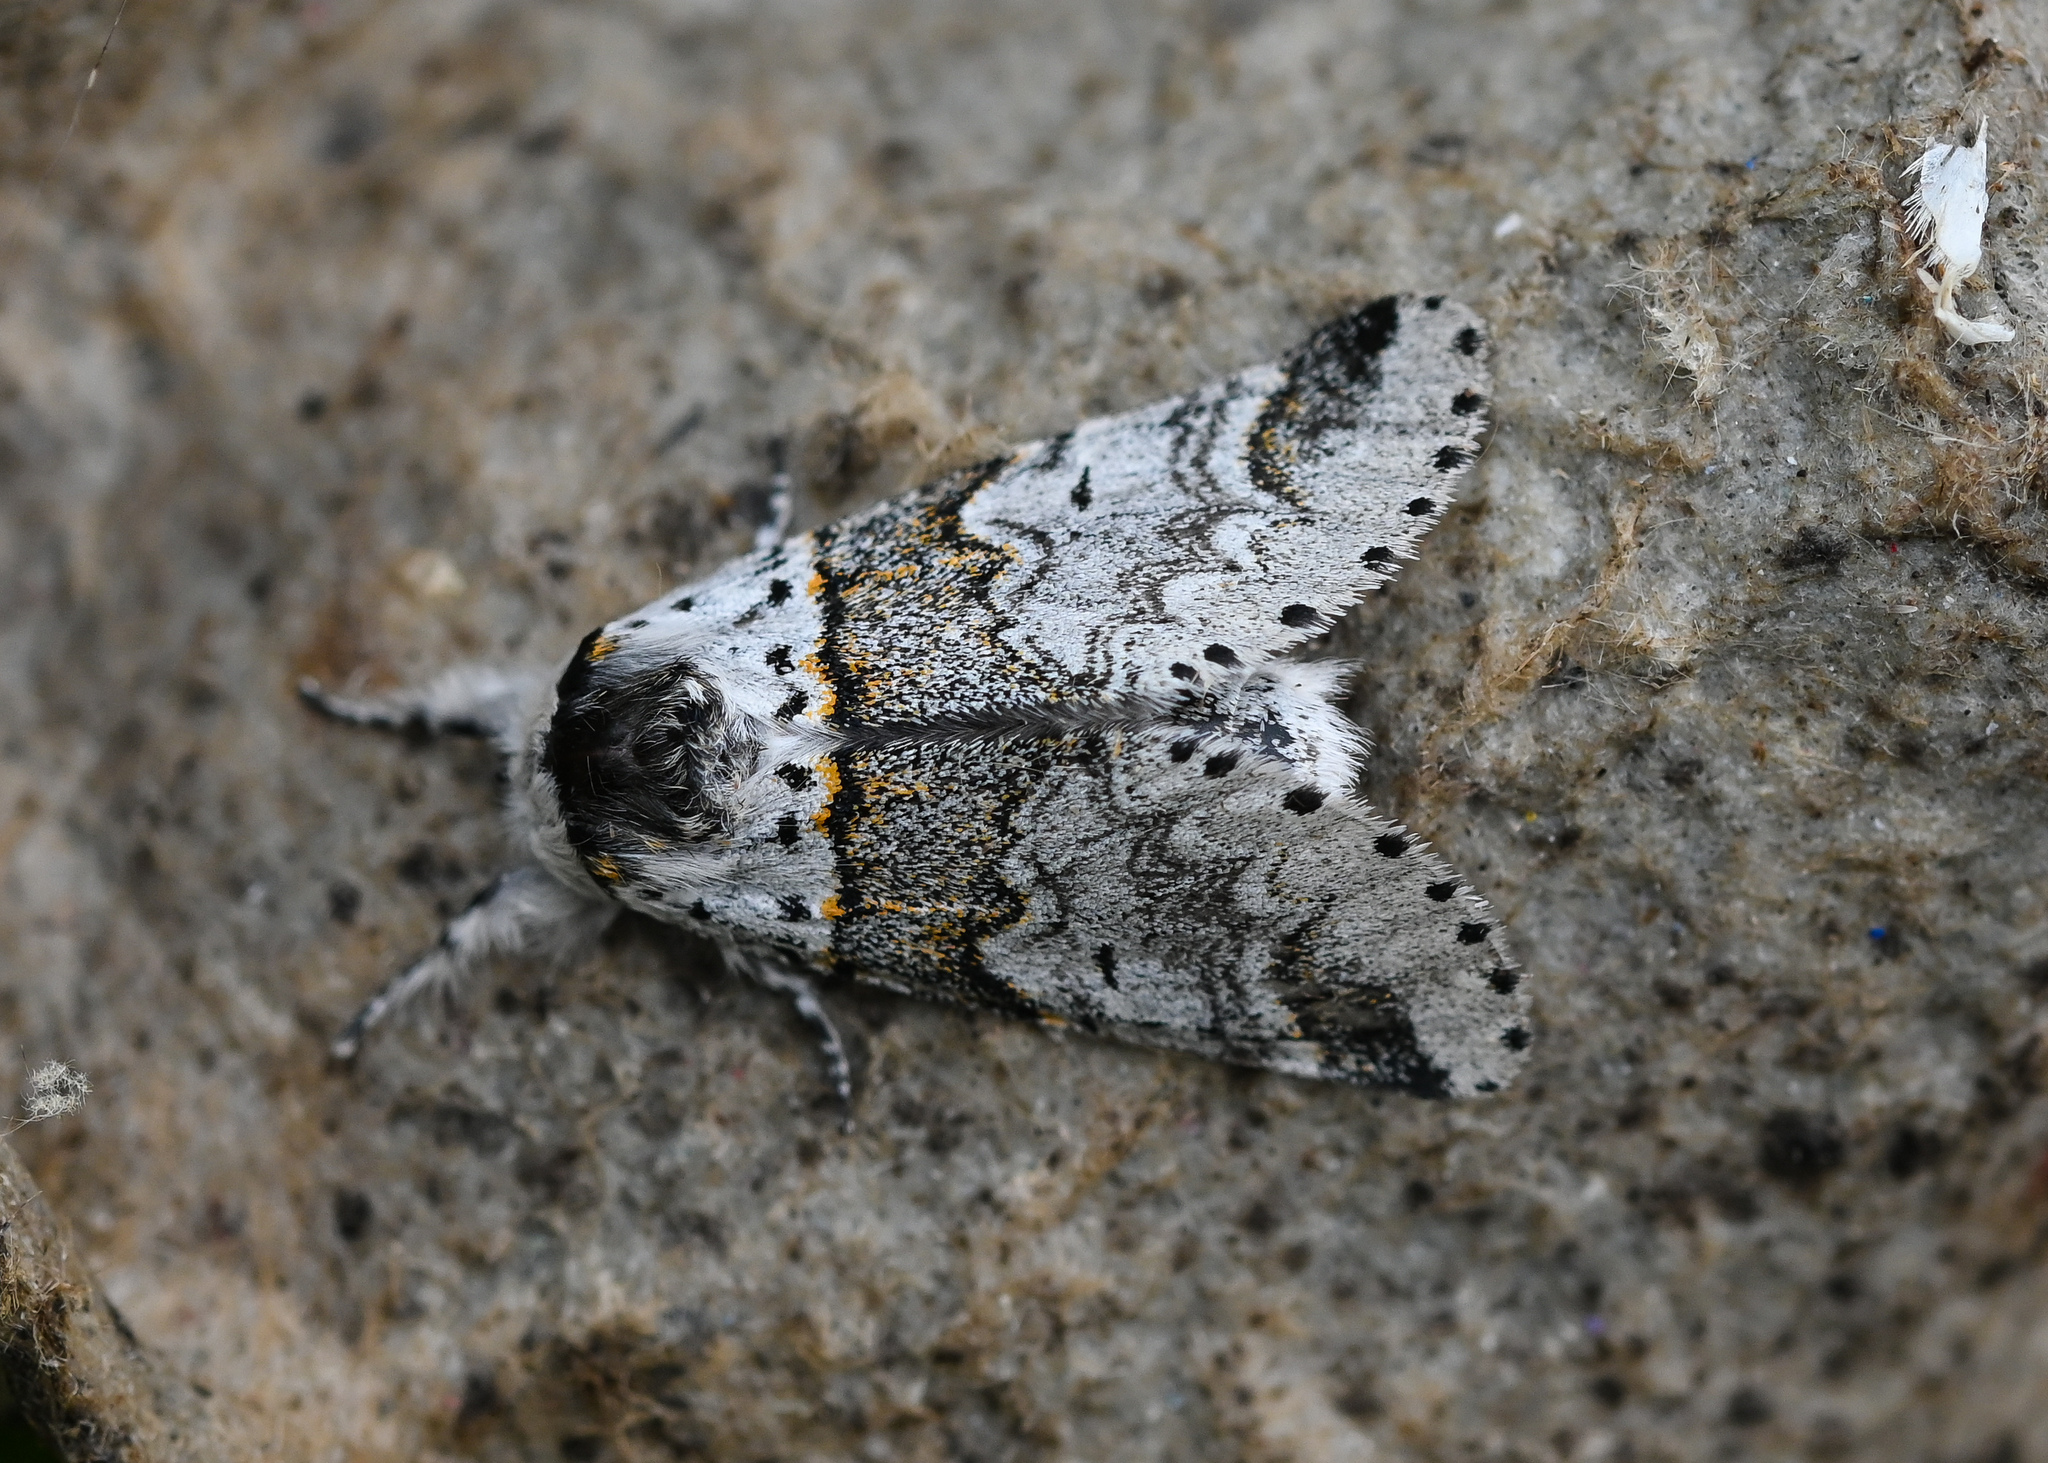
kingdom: Animalia
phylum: Arthropoda
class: Insecta
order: Lepidoptera
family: Notodontidae
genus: Furcula
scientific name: Furcula furcula
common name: Sallow kitten
